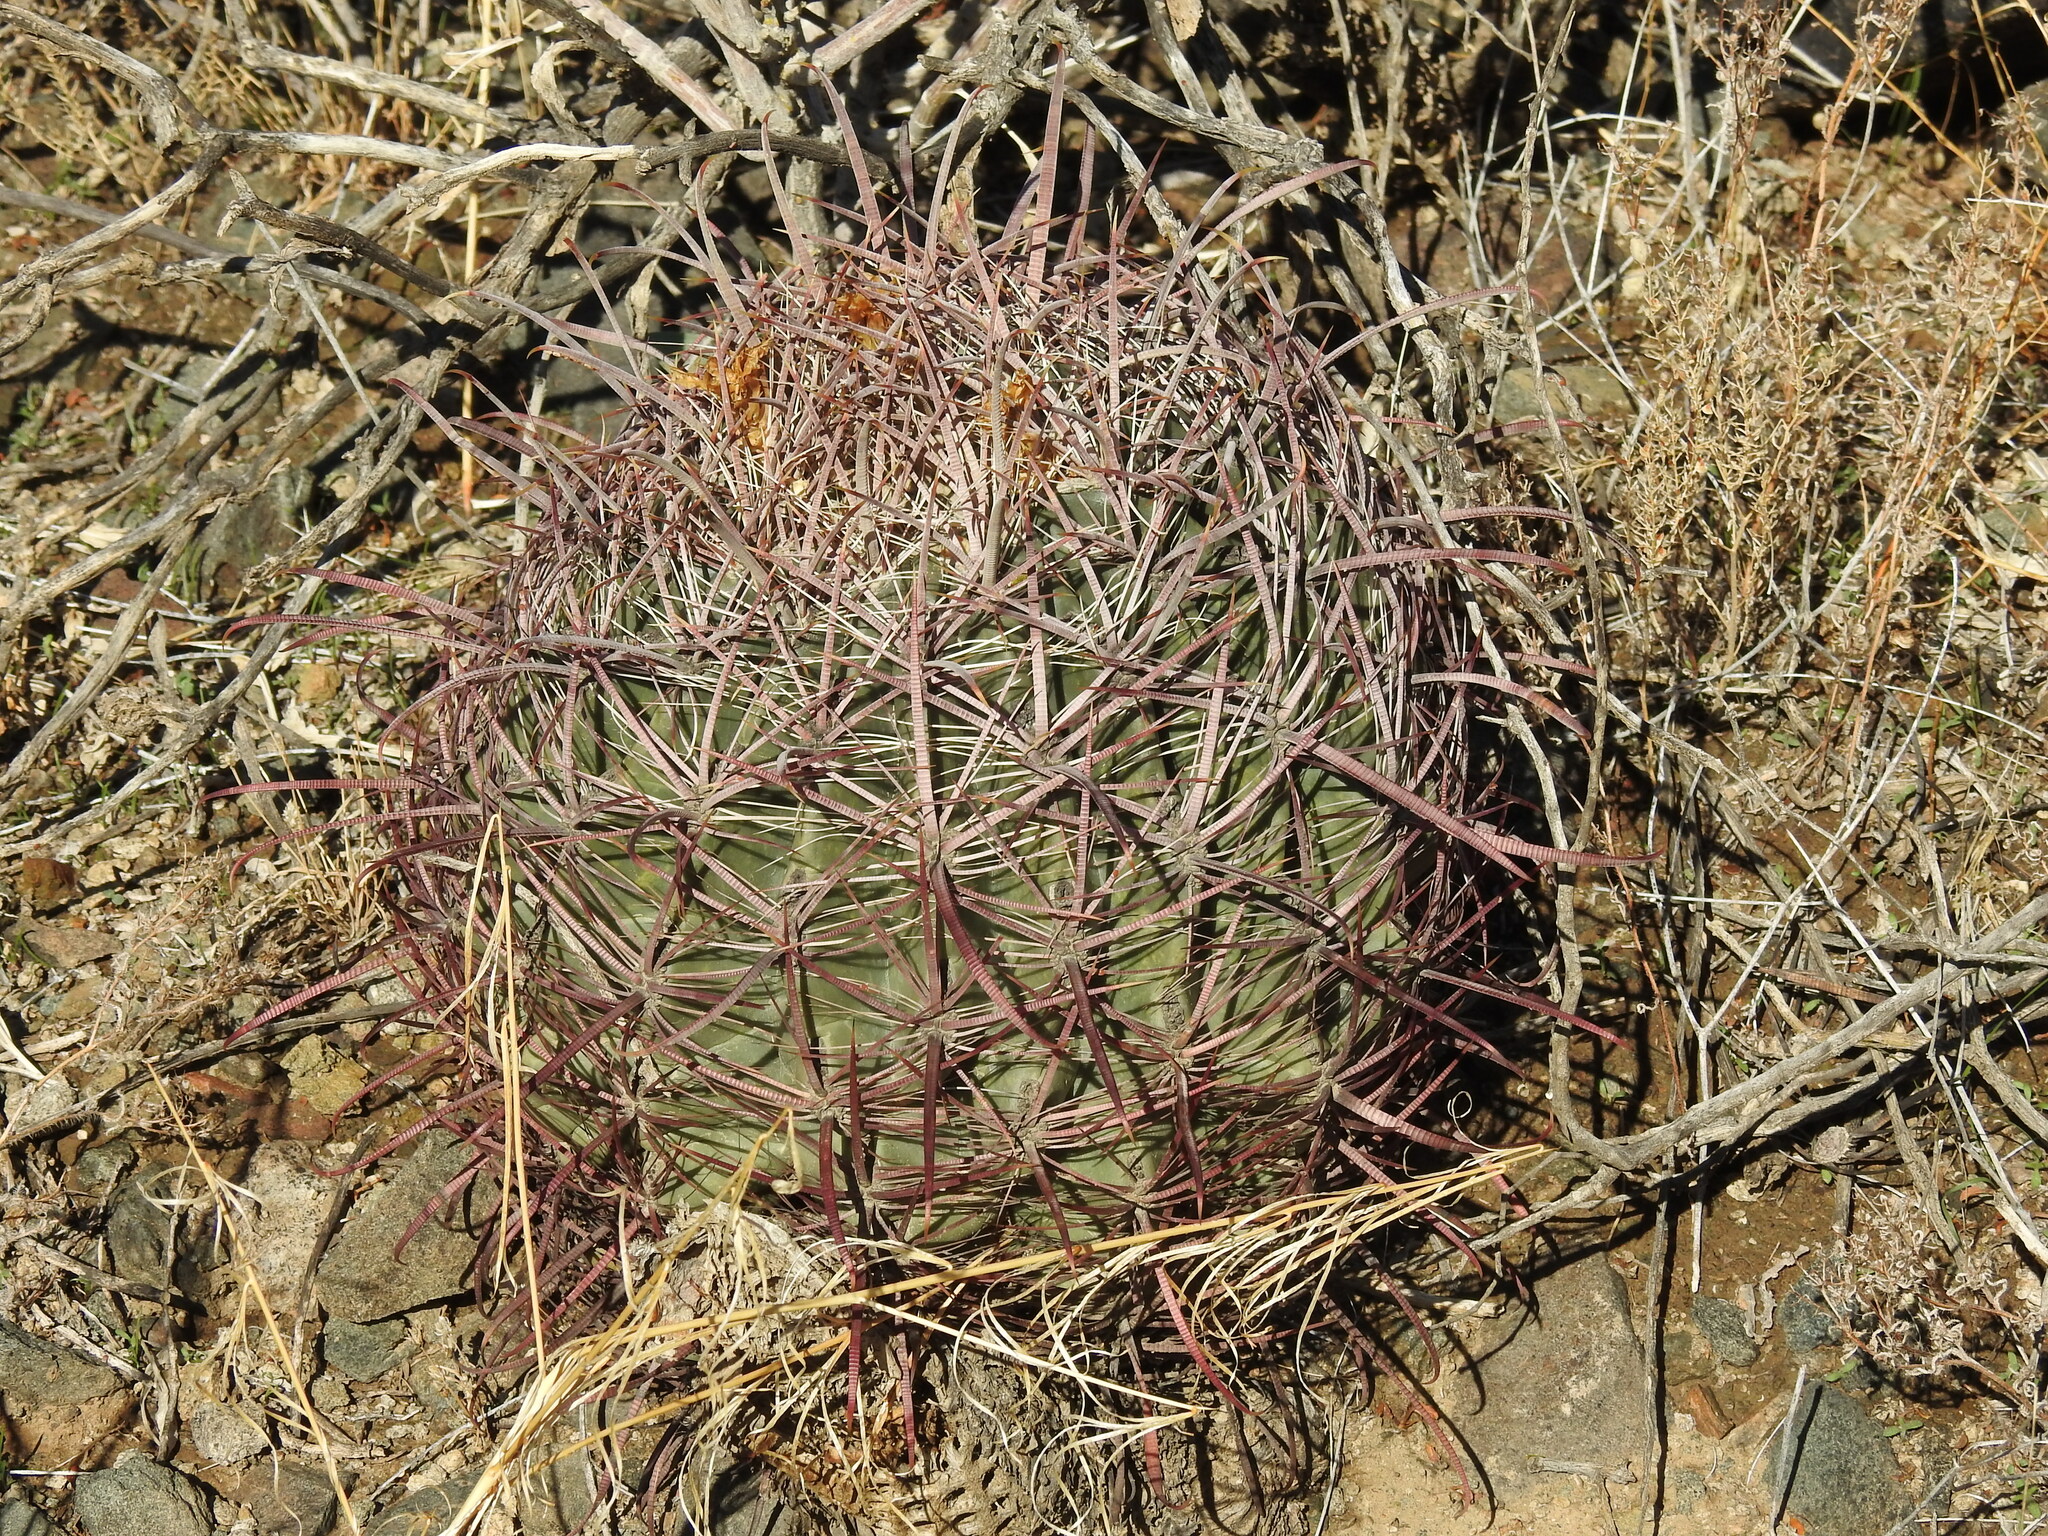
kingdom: Plantae
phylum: Tracheophyta
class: Magnoliopsida
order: Caryophyllales
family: Cactaceae
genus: Ferocactus
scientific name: Ferocactus cylindraceus
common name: California barrel cactus
